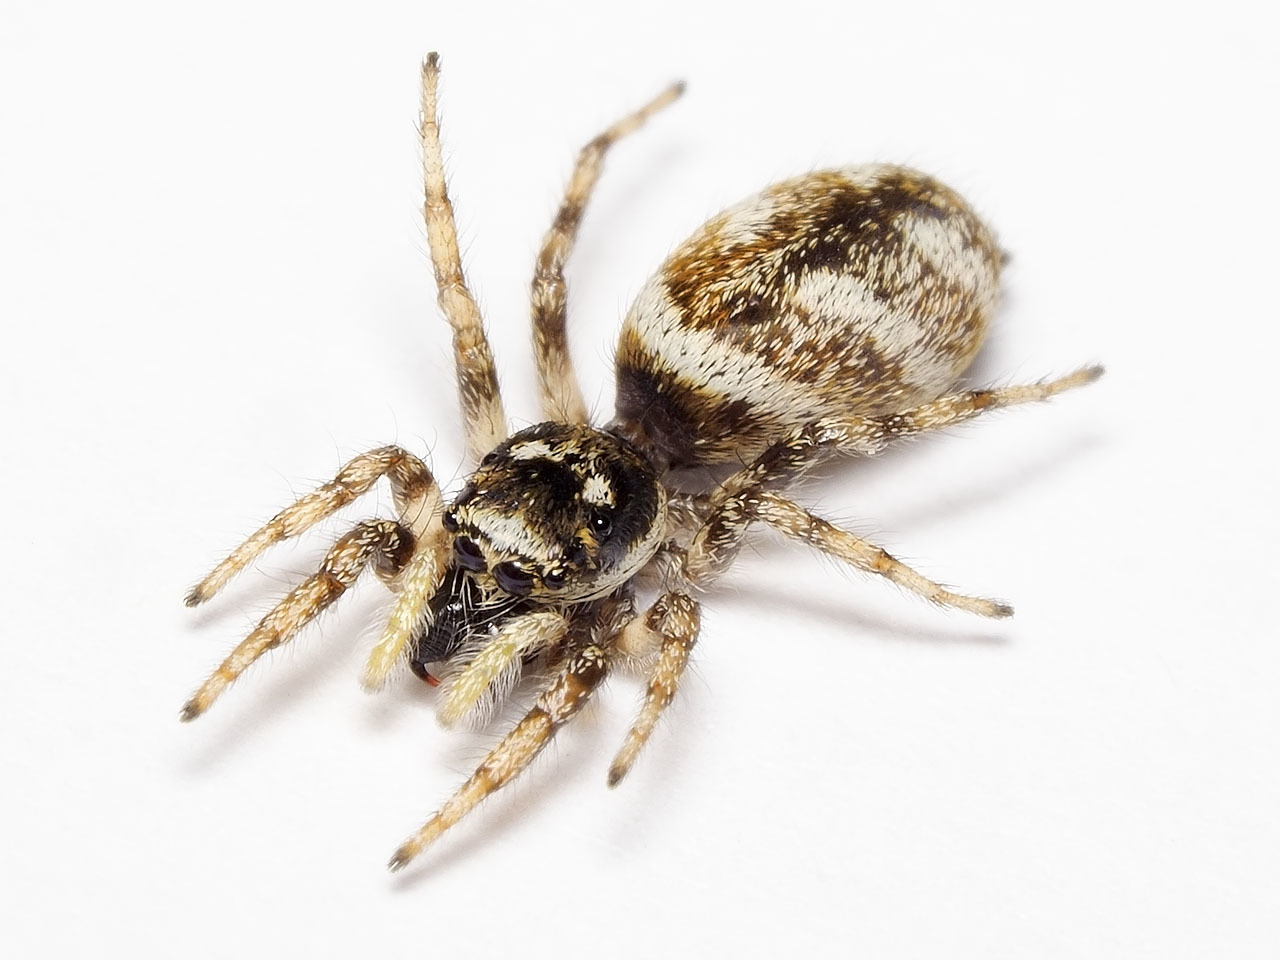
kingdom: Animalia
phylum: Arthropoda
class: Arachnida
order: Araneae
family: Salticidae
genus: Salticus
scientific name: Salticus scenicus
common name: Zebra jumper
